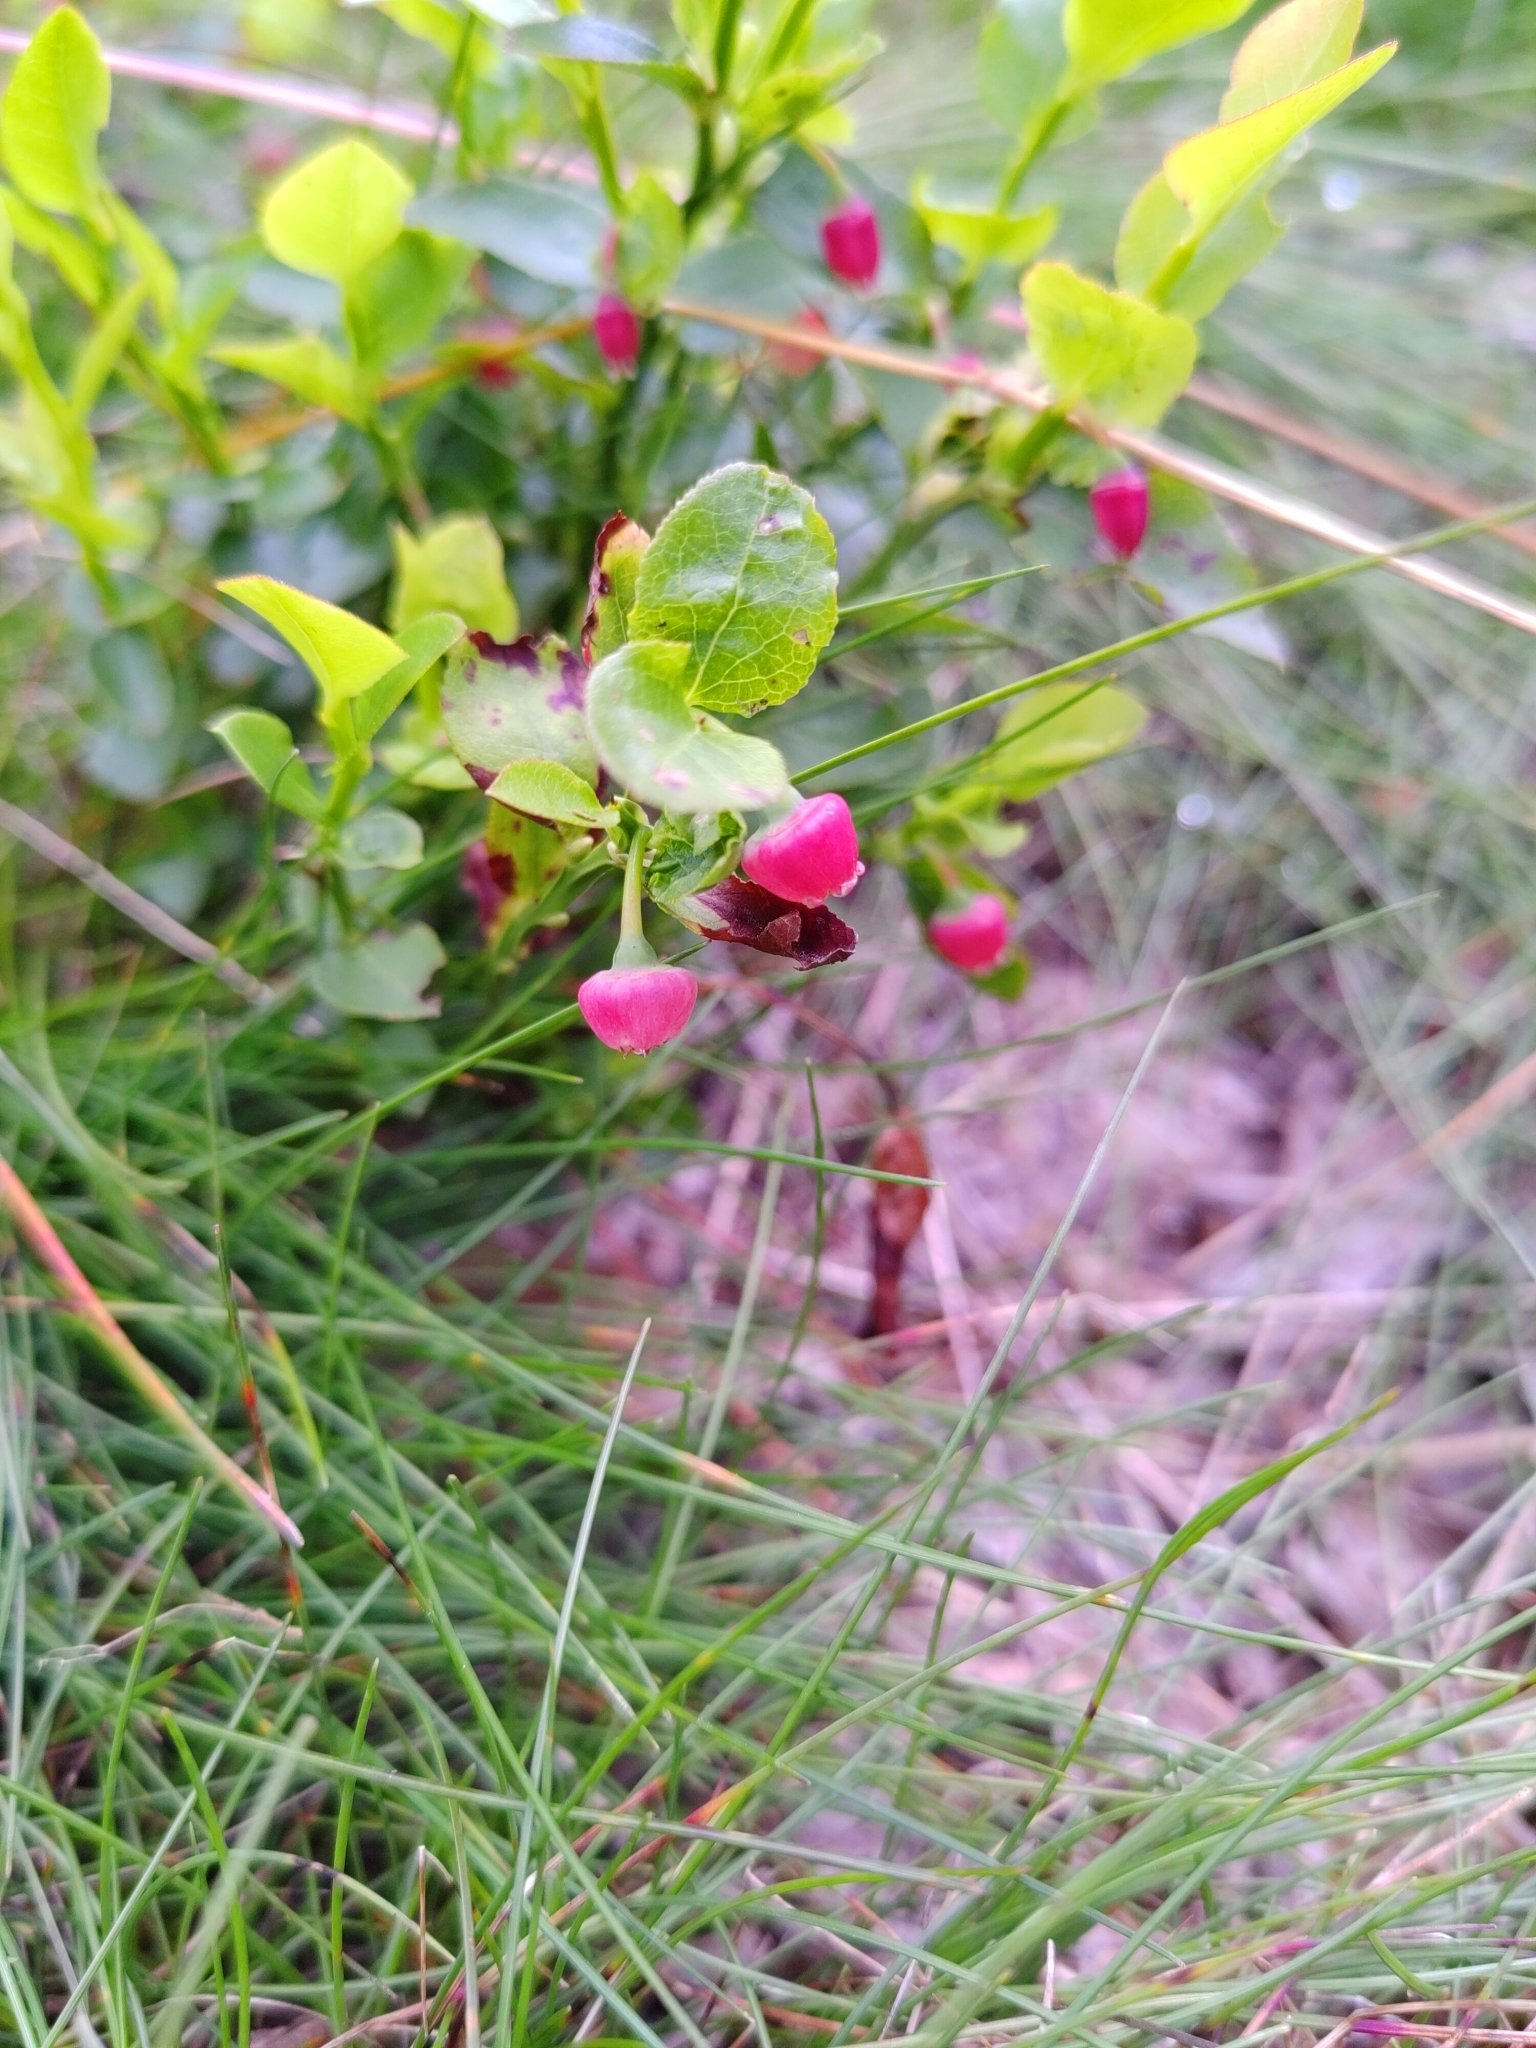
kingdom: Plantae
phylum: Tracheophyta
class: Magnoliopsida
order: Ericales
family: Ericaceae
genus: Vaccinium
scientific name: Vaccinium myrtillus
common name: Bilberry
